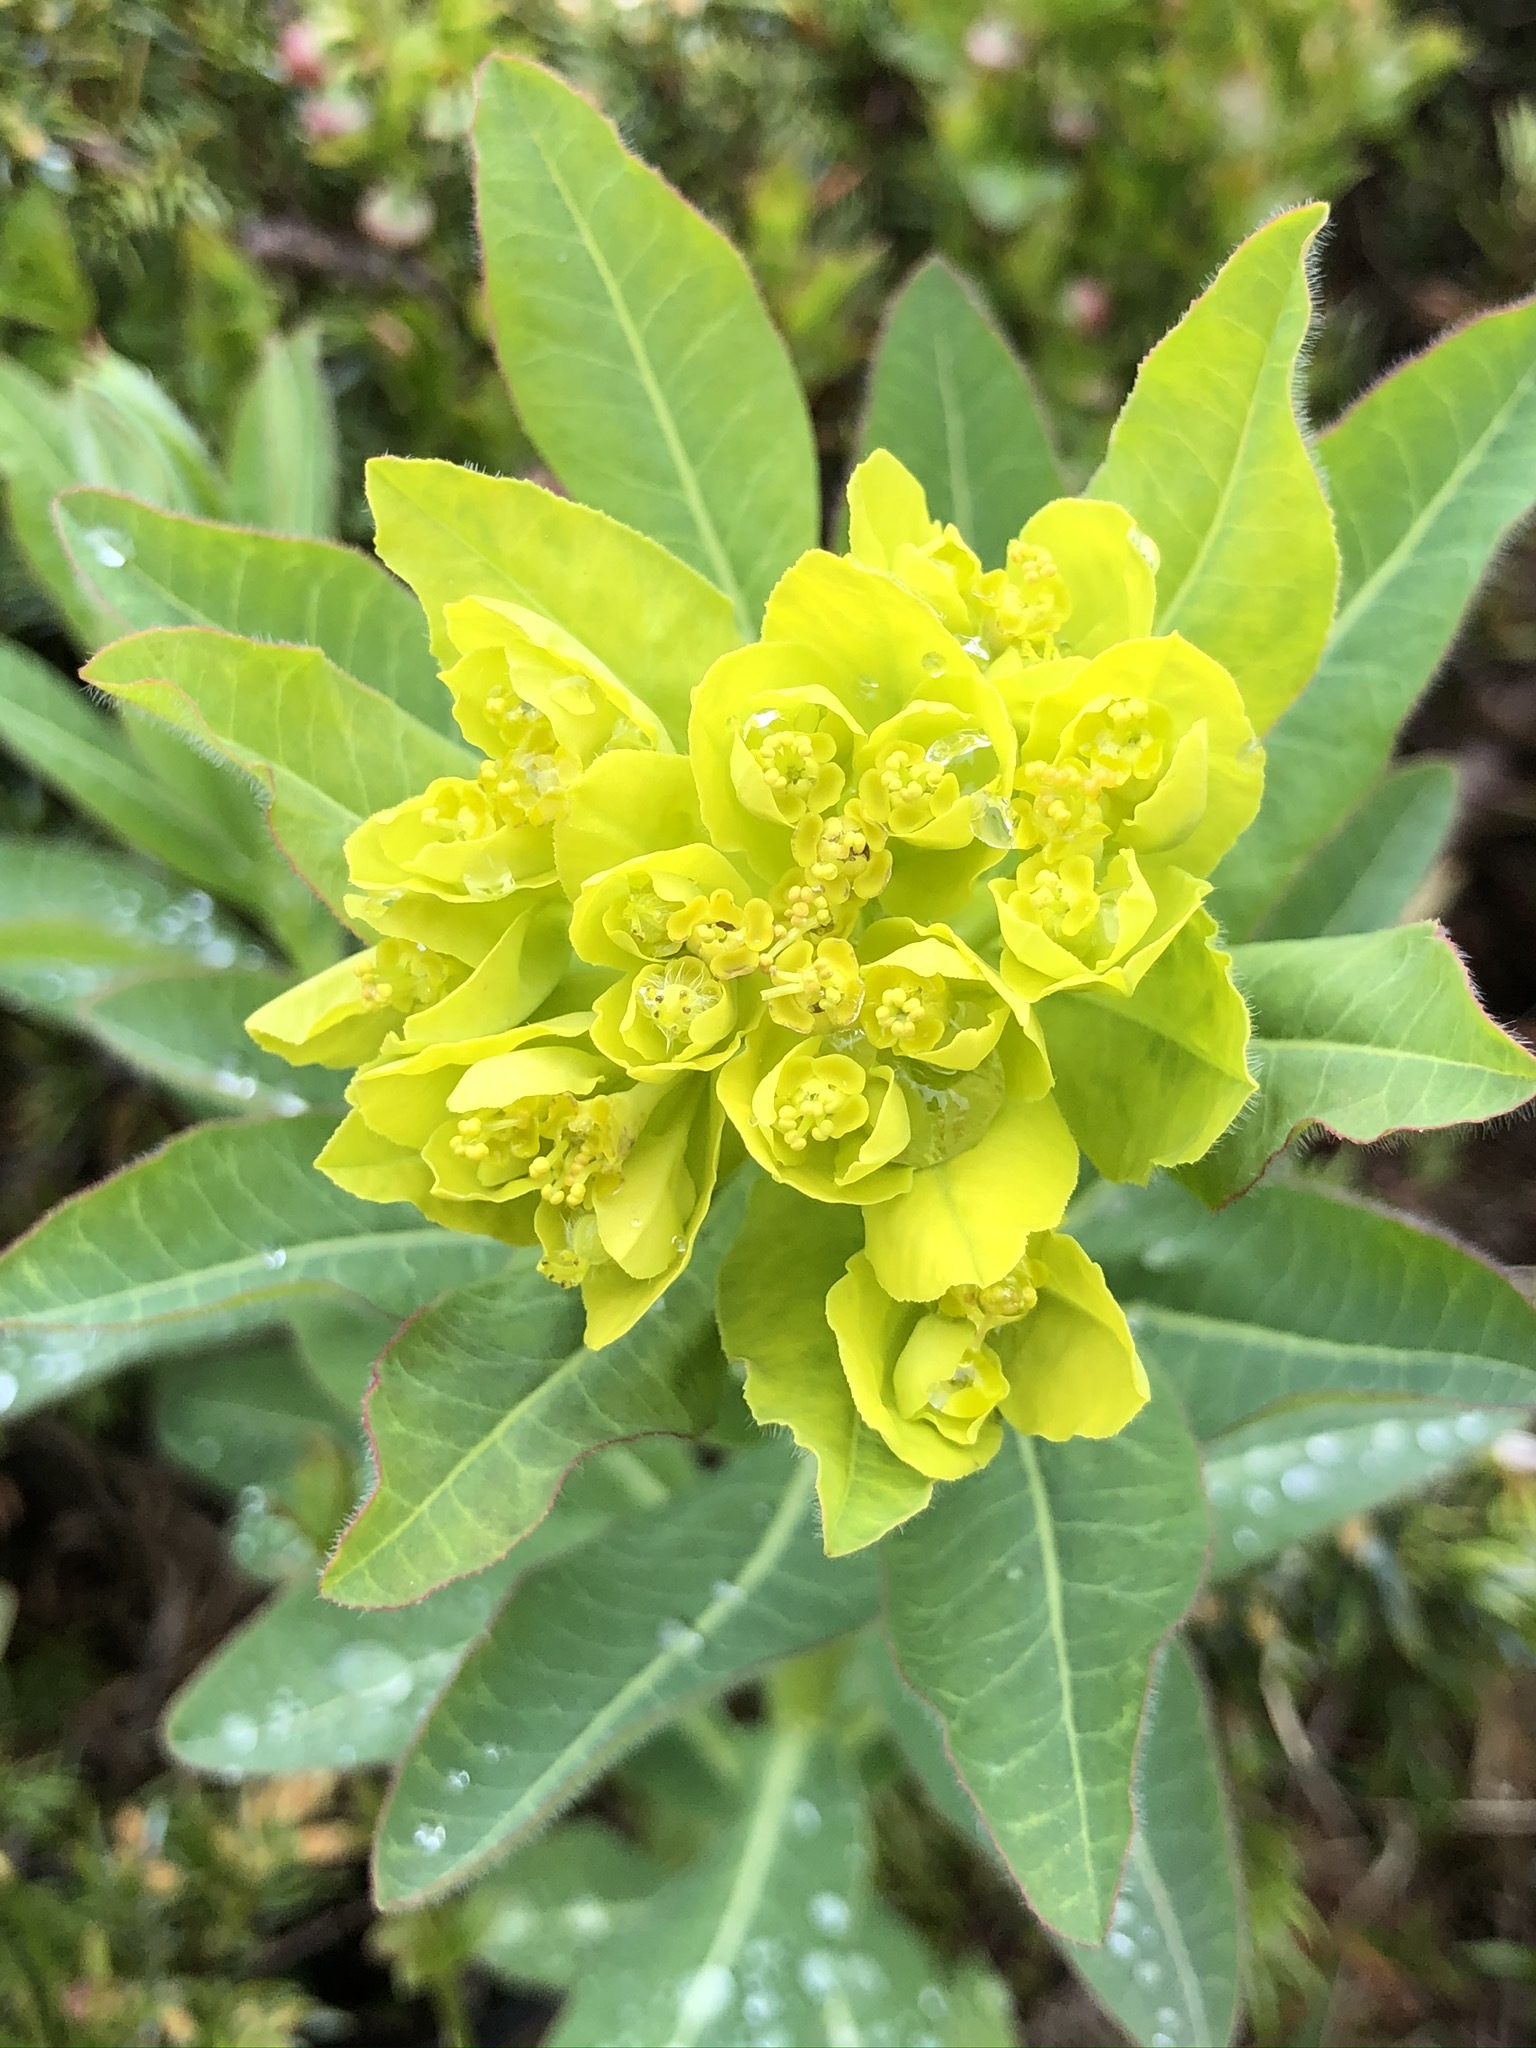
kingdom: Plantae
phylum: Tracheophyta
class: Magnoliopsida
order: Malpighiales
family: Euphorbiaceae
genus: Euphorbia
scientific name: Euphorbia austriaca
